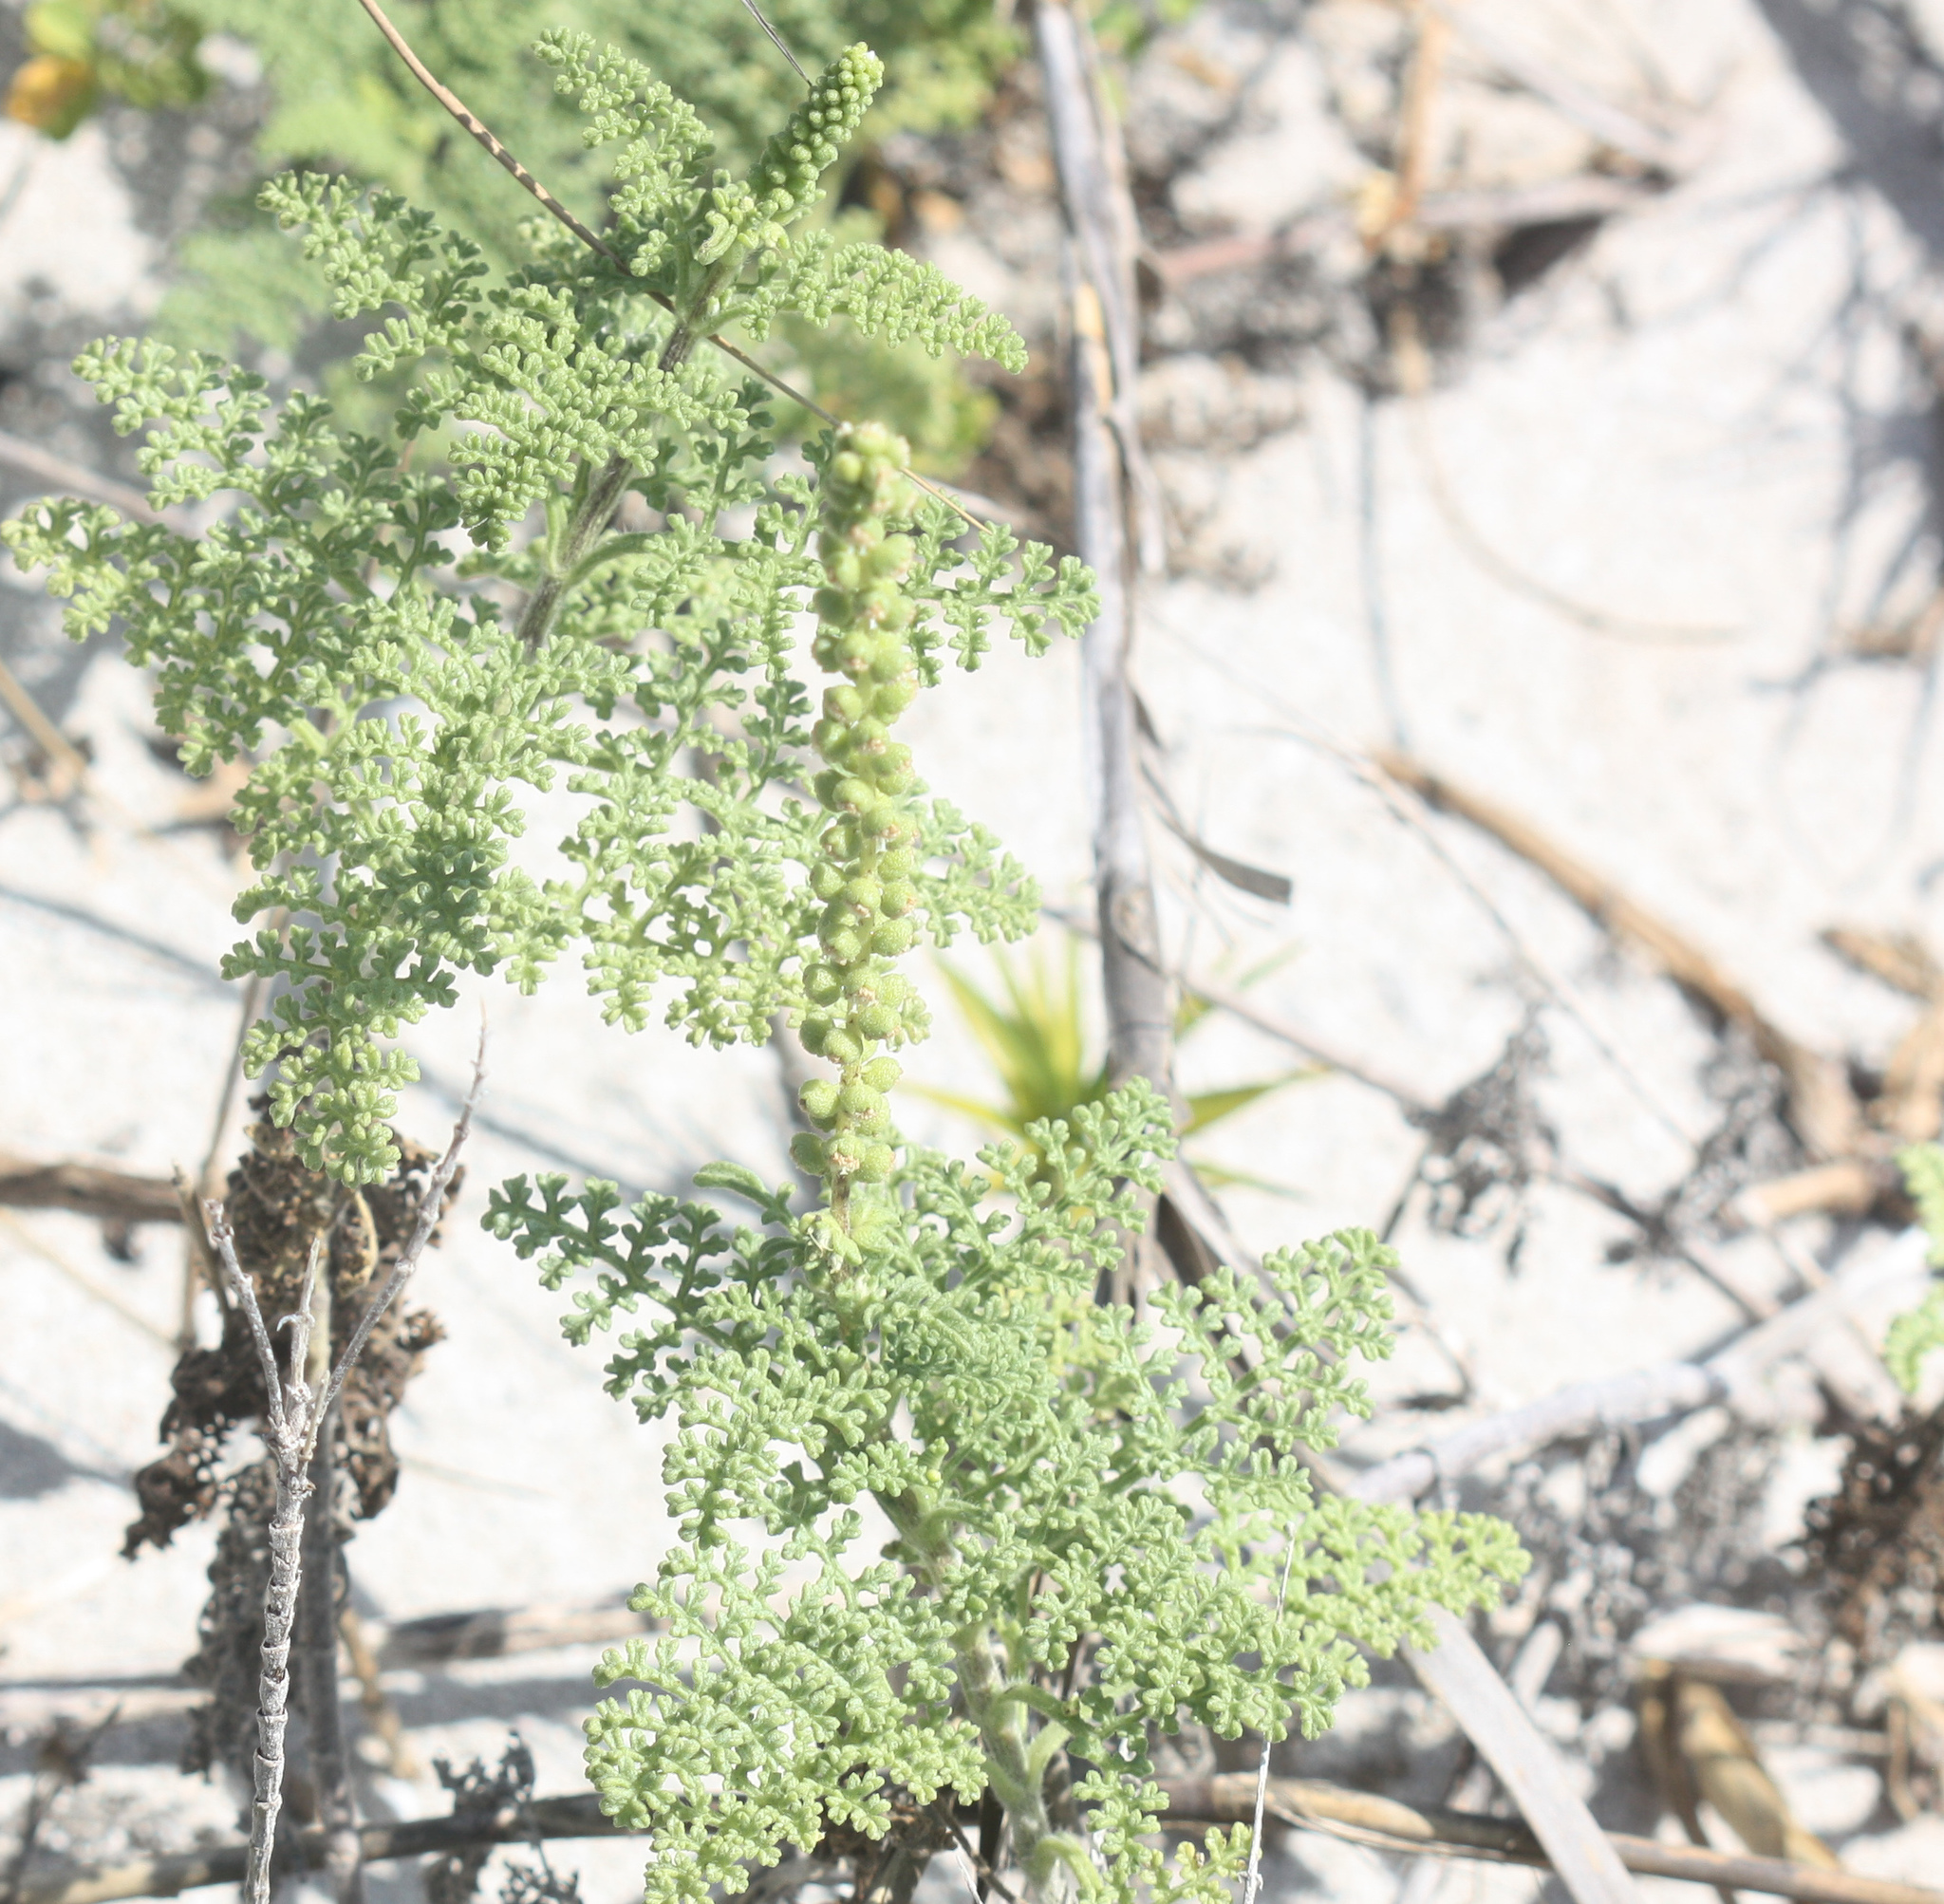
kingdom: Plantae
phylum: Tracheophyta
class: Magnoliopsida
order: Asterales
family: Asteraceae
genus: Ambrosia
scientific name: Ambrosia hispida
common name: Coastal ragweed
